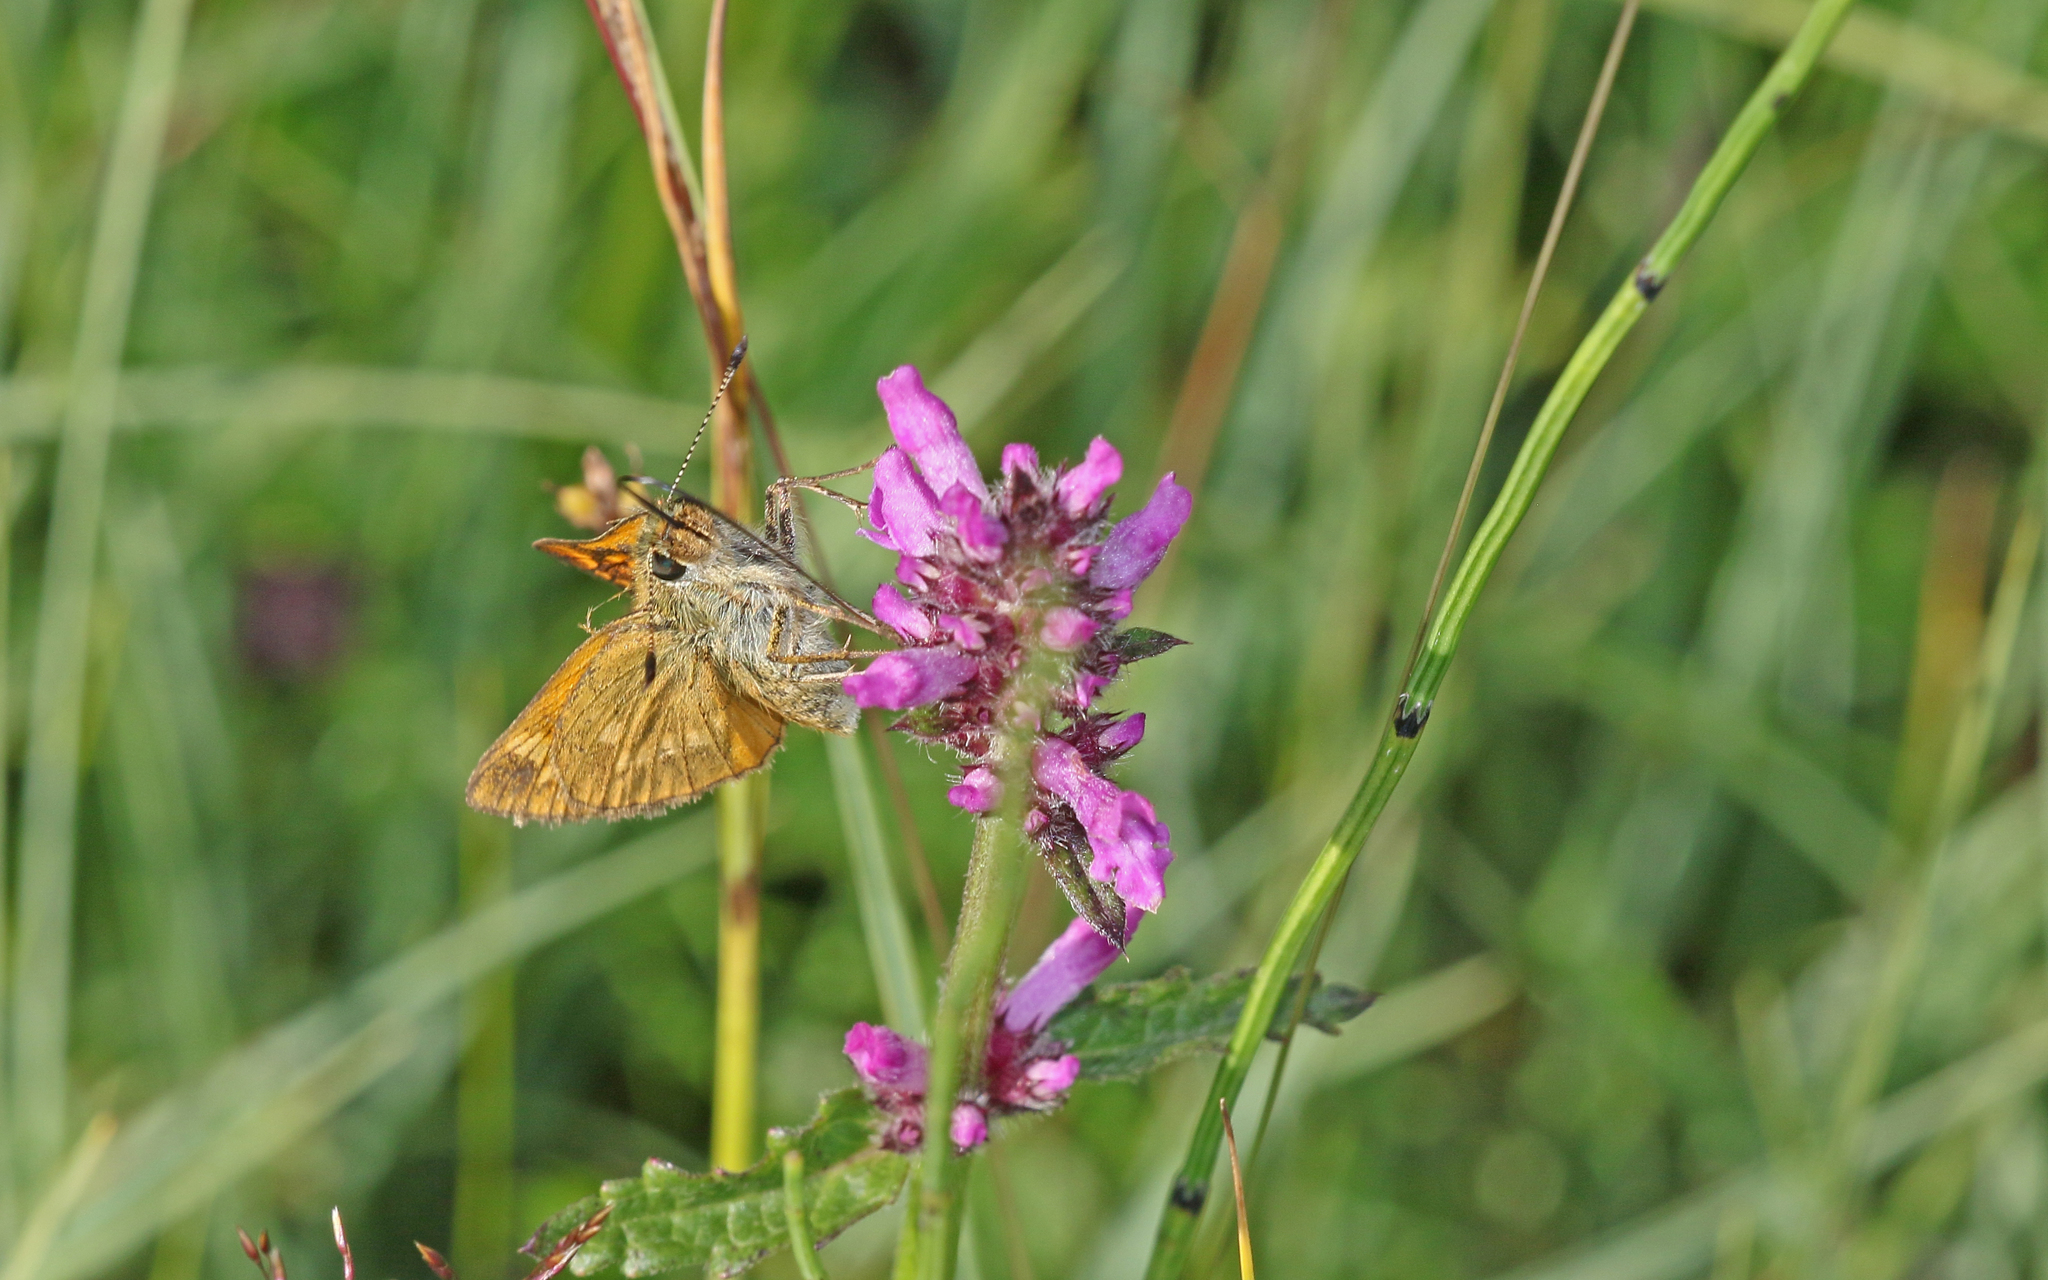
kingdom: Animalia
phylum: Arthropoda
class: Insecta
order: Lepidoptera
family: Hesperiidae
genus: Ochlodes
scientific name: Ochlodes venata
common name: Large skipper
